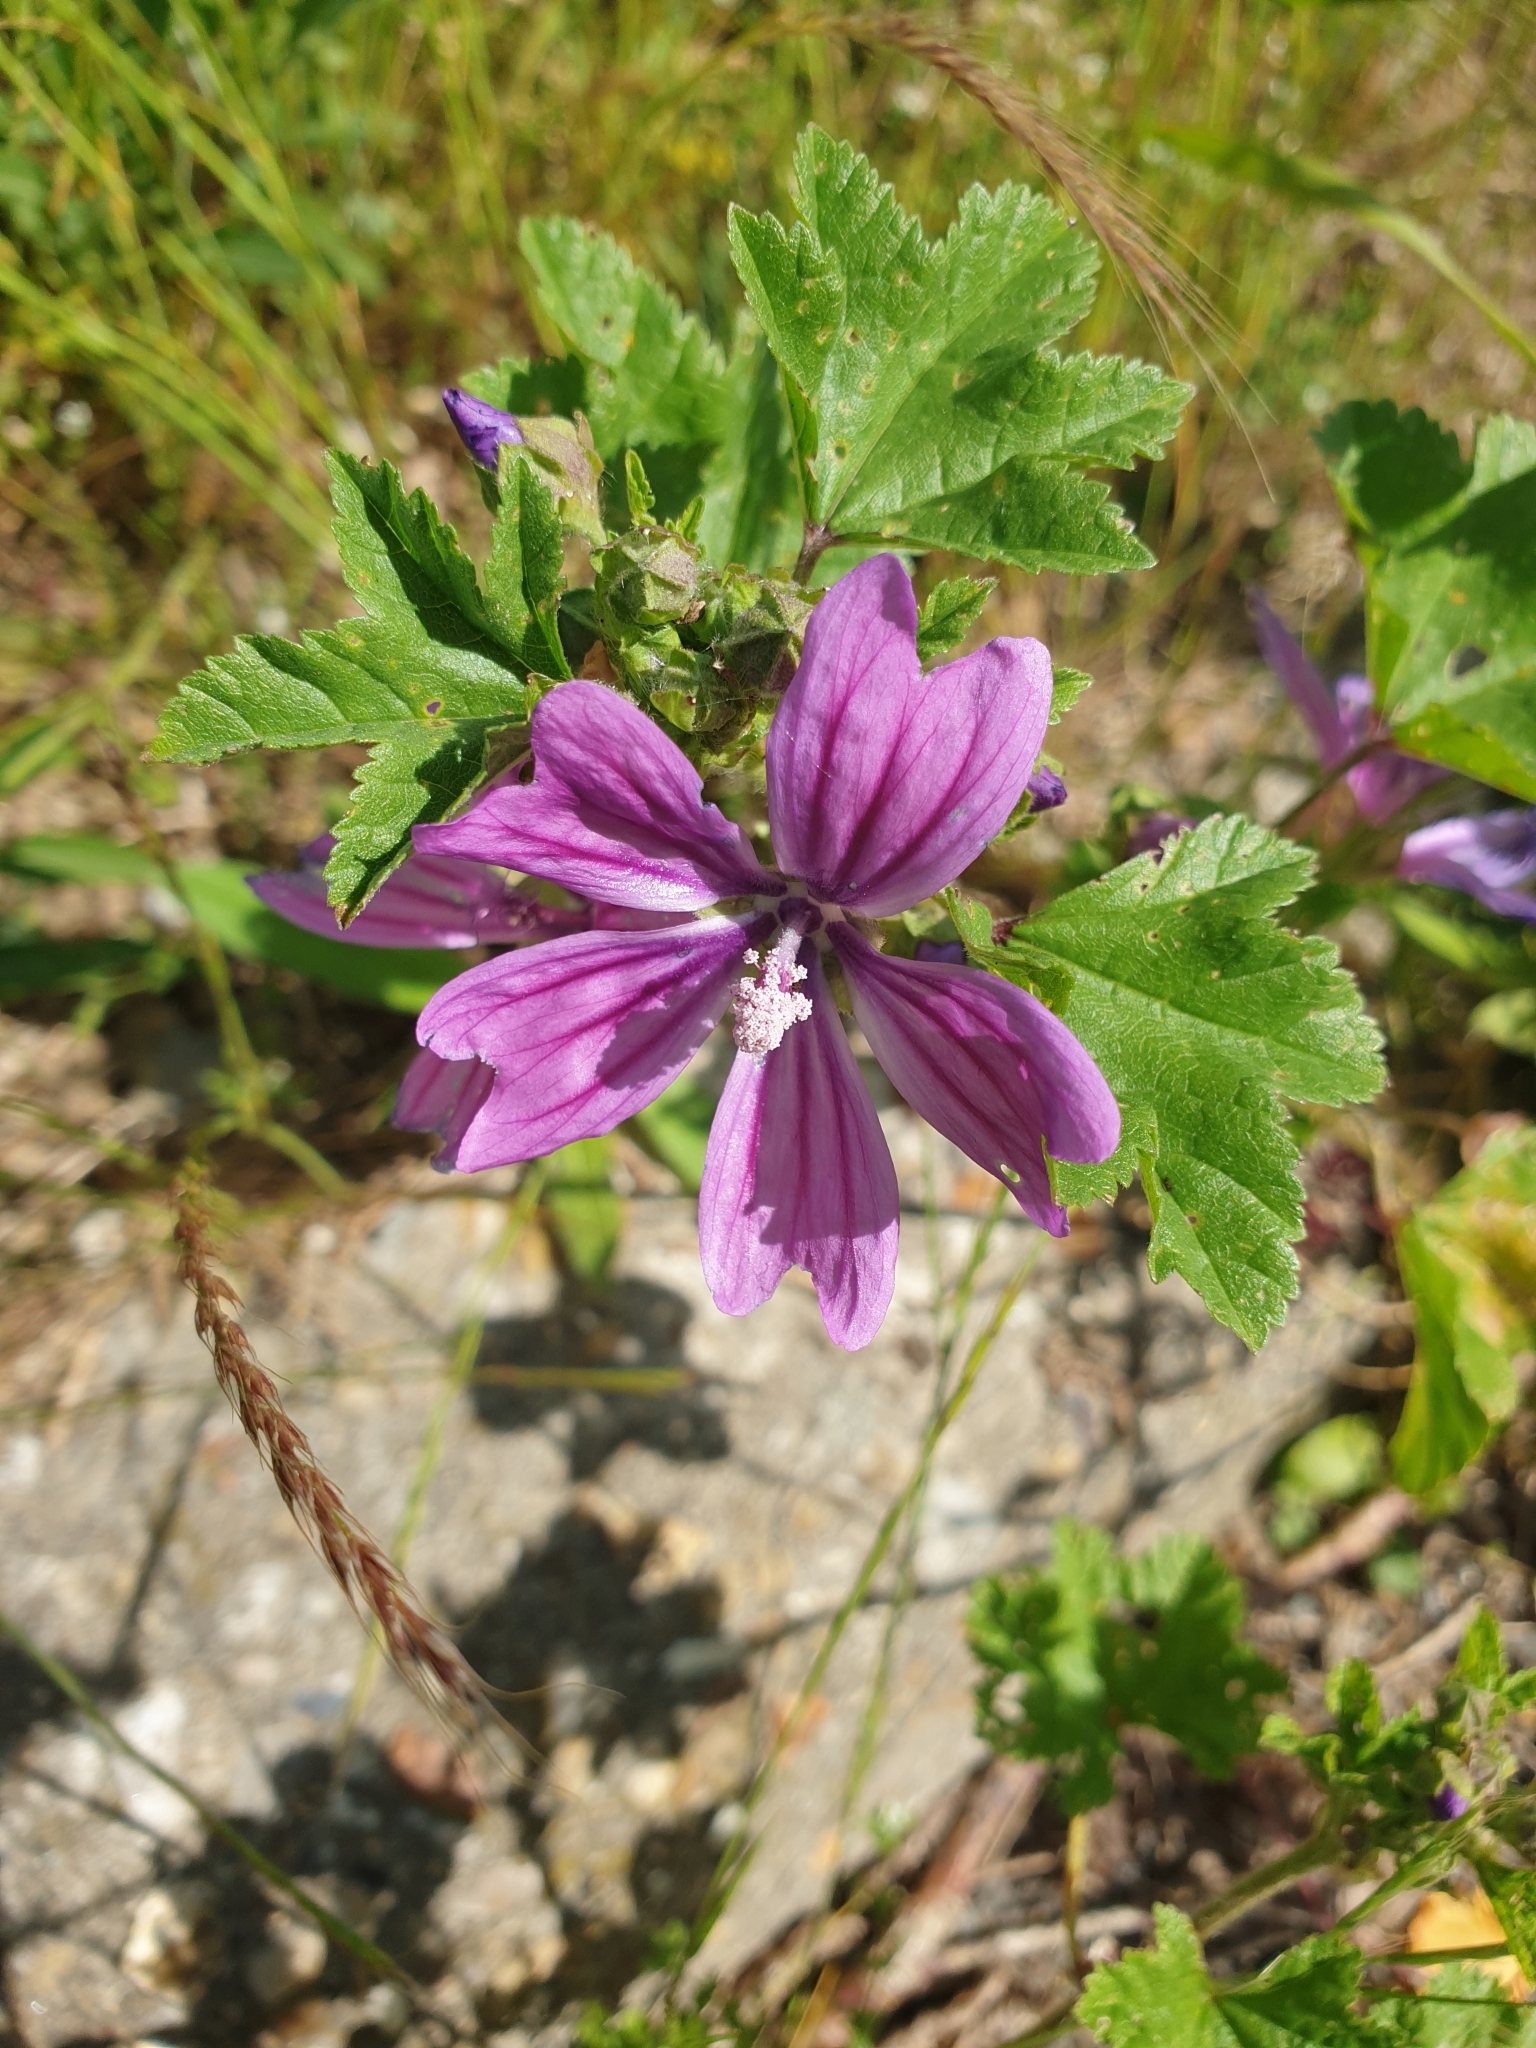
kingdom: Plantae
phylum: Tracheophyta
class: Magnoliopsida
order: Malvales
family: Malvaceae
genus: Malva
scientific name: Malva sylvestris
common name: Common mallow
